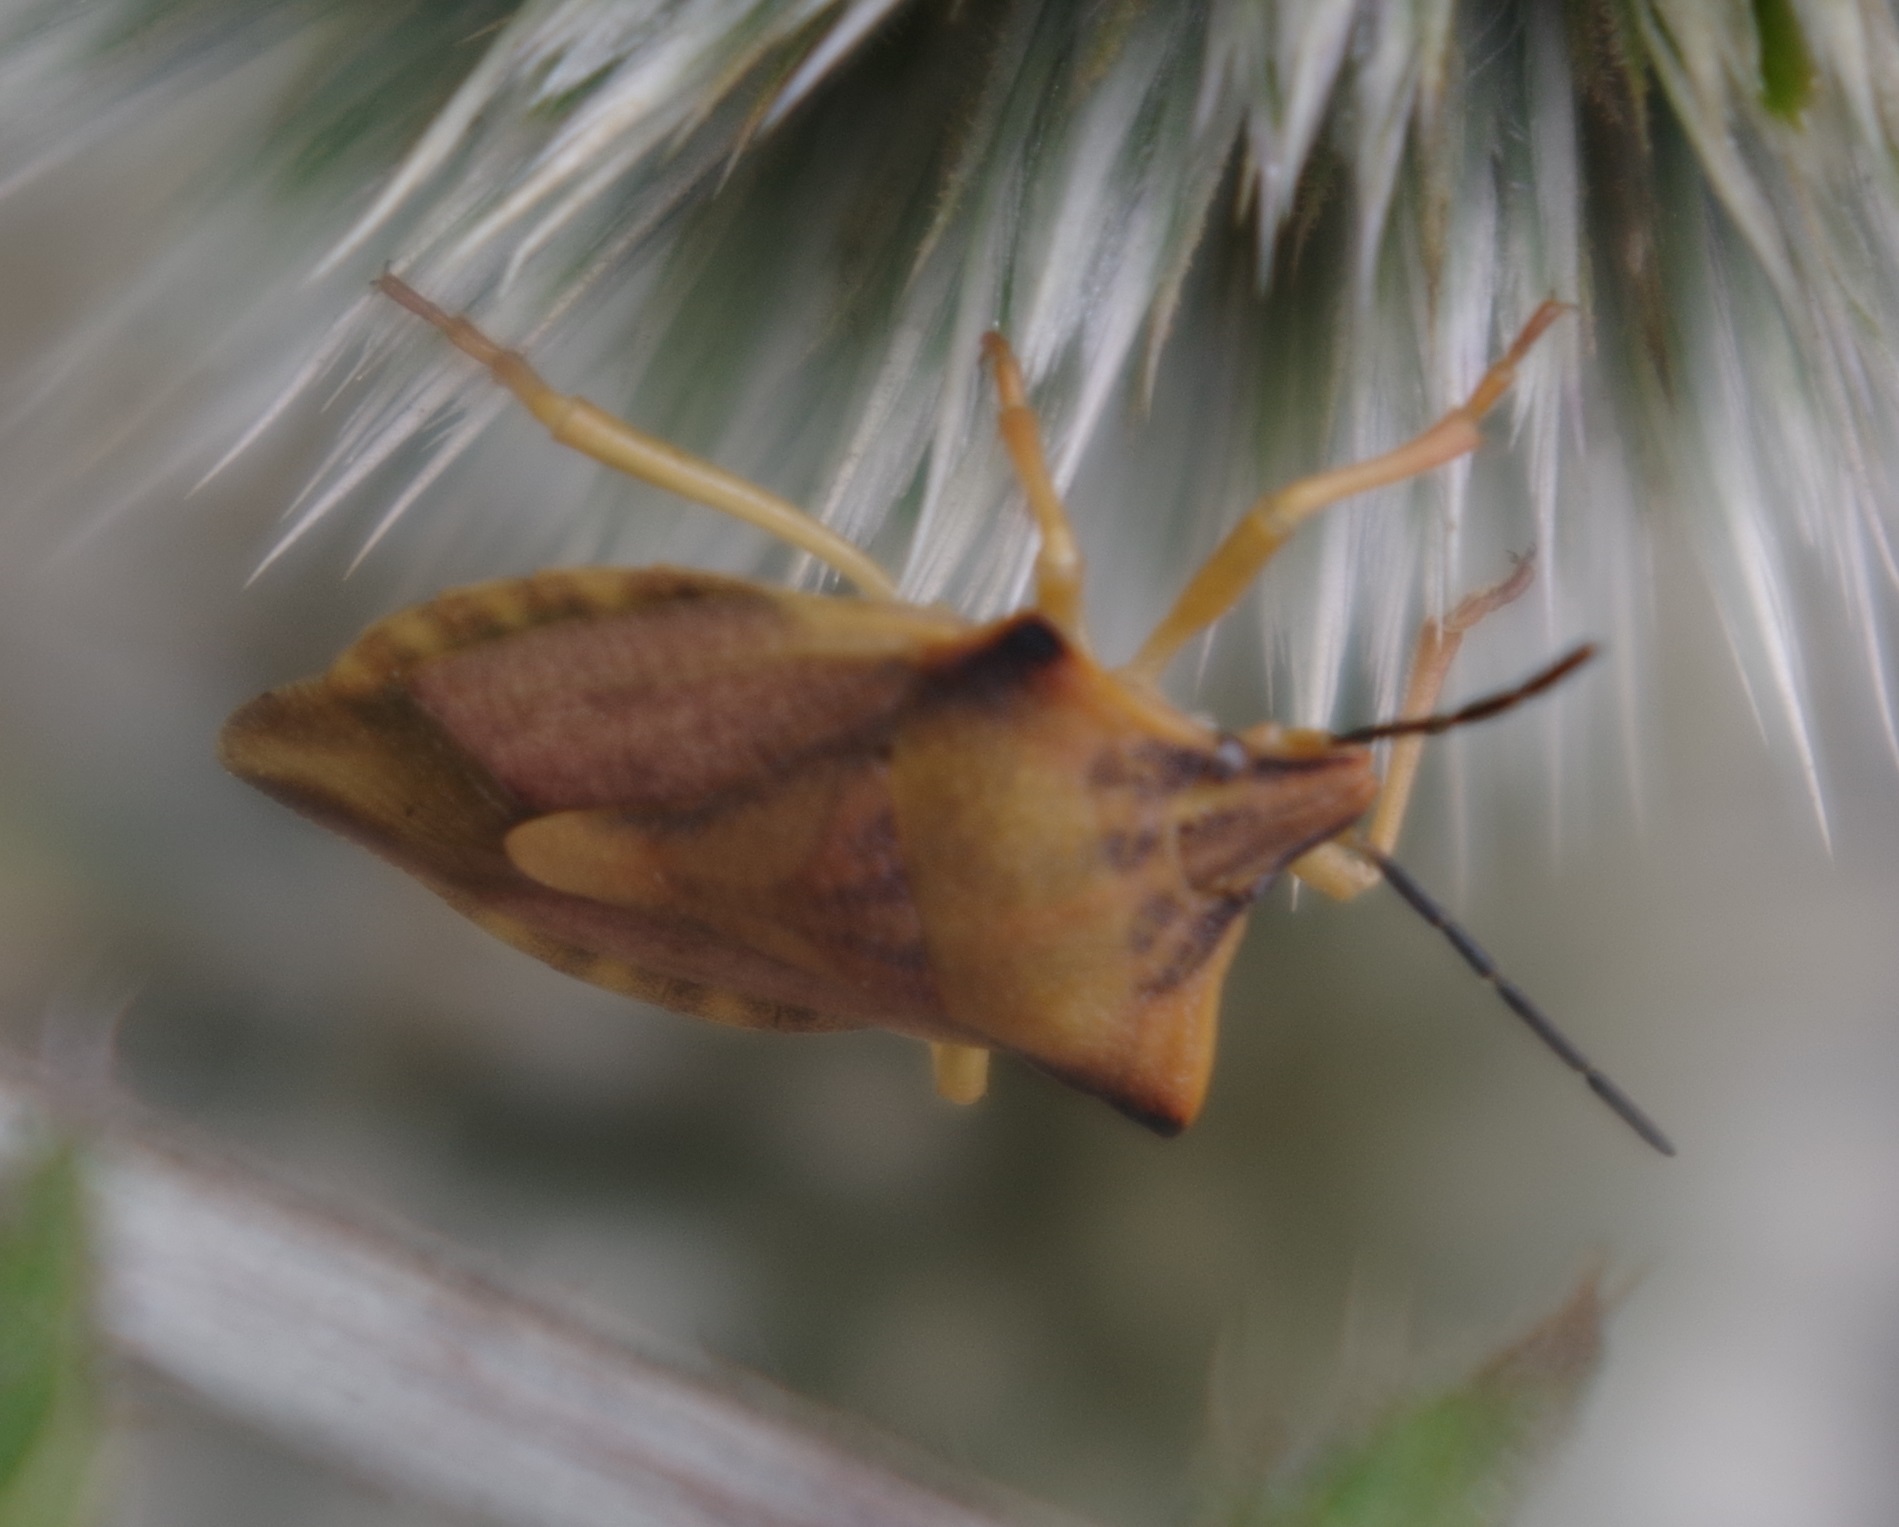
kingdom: Animalia
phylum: Arthropoda
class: Insecta
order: Hemiptera
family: Pentatomidae
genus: Carpocoris
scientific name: Carpocoris fuscispinus
